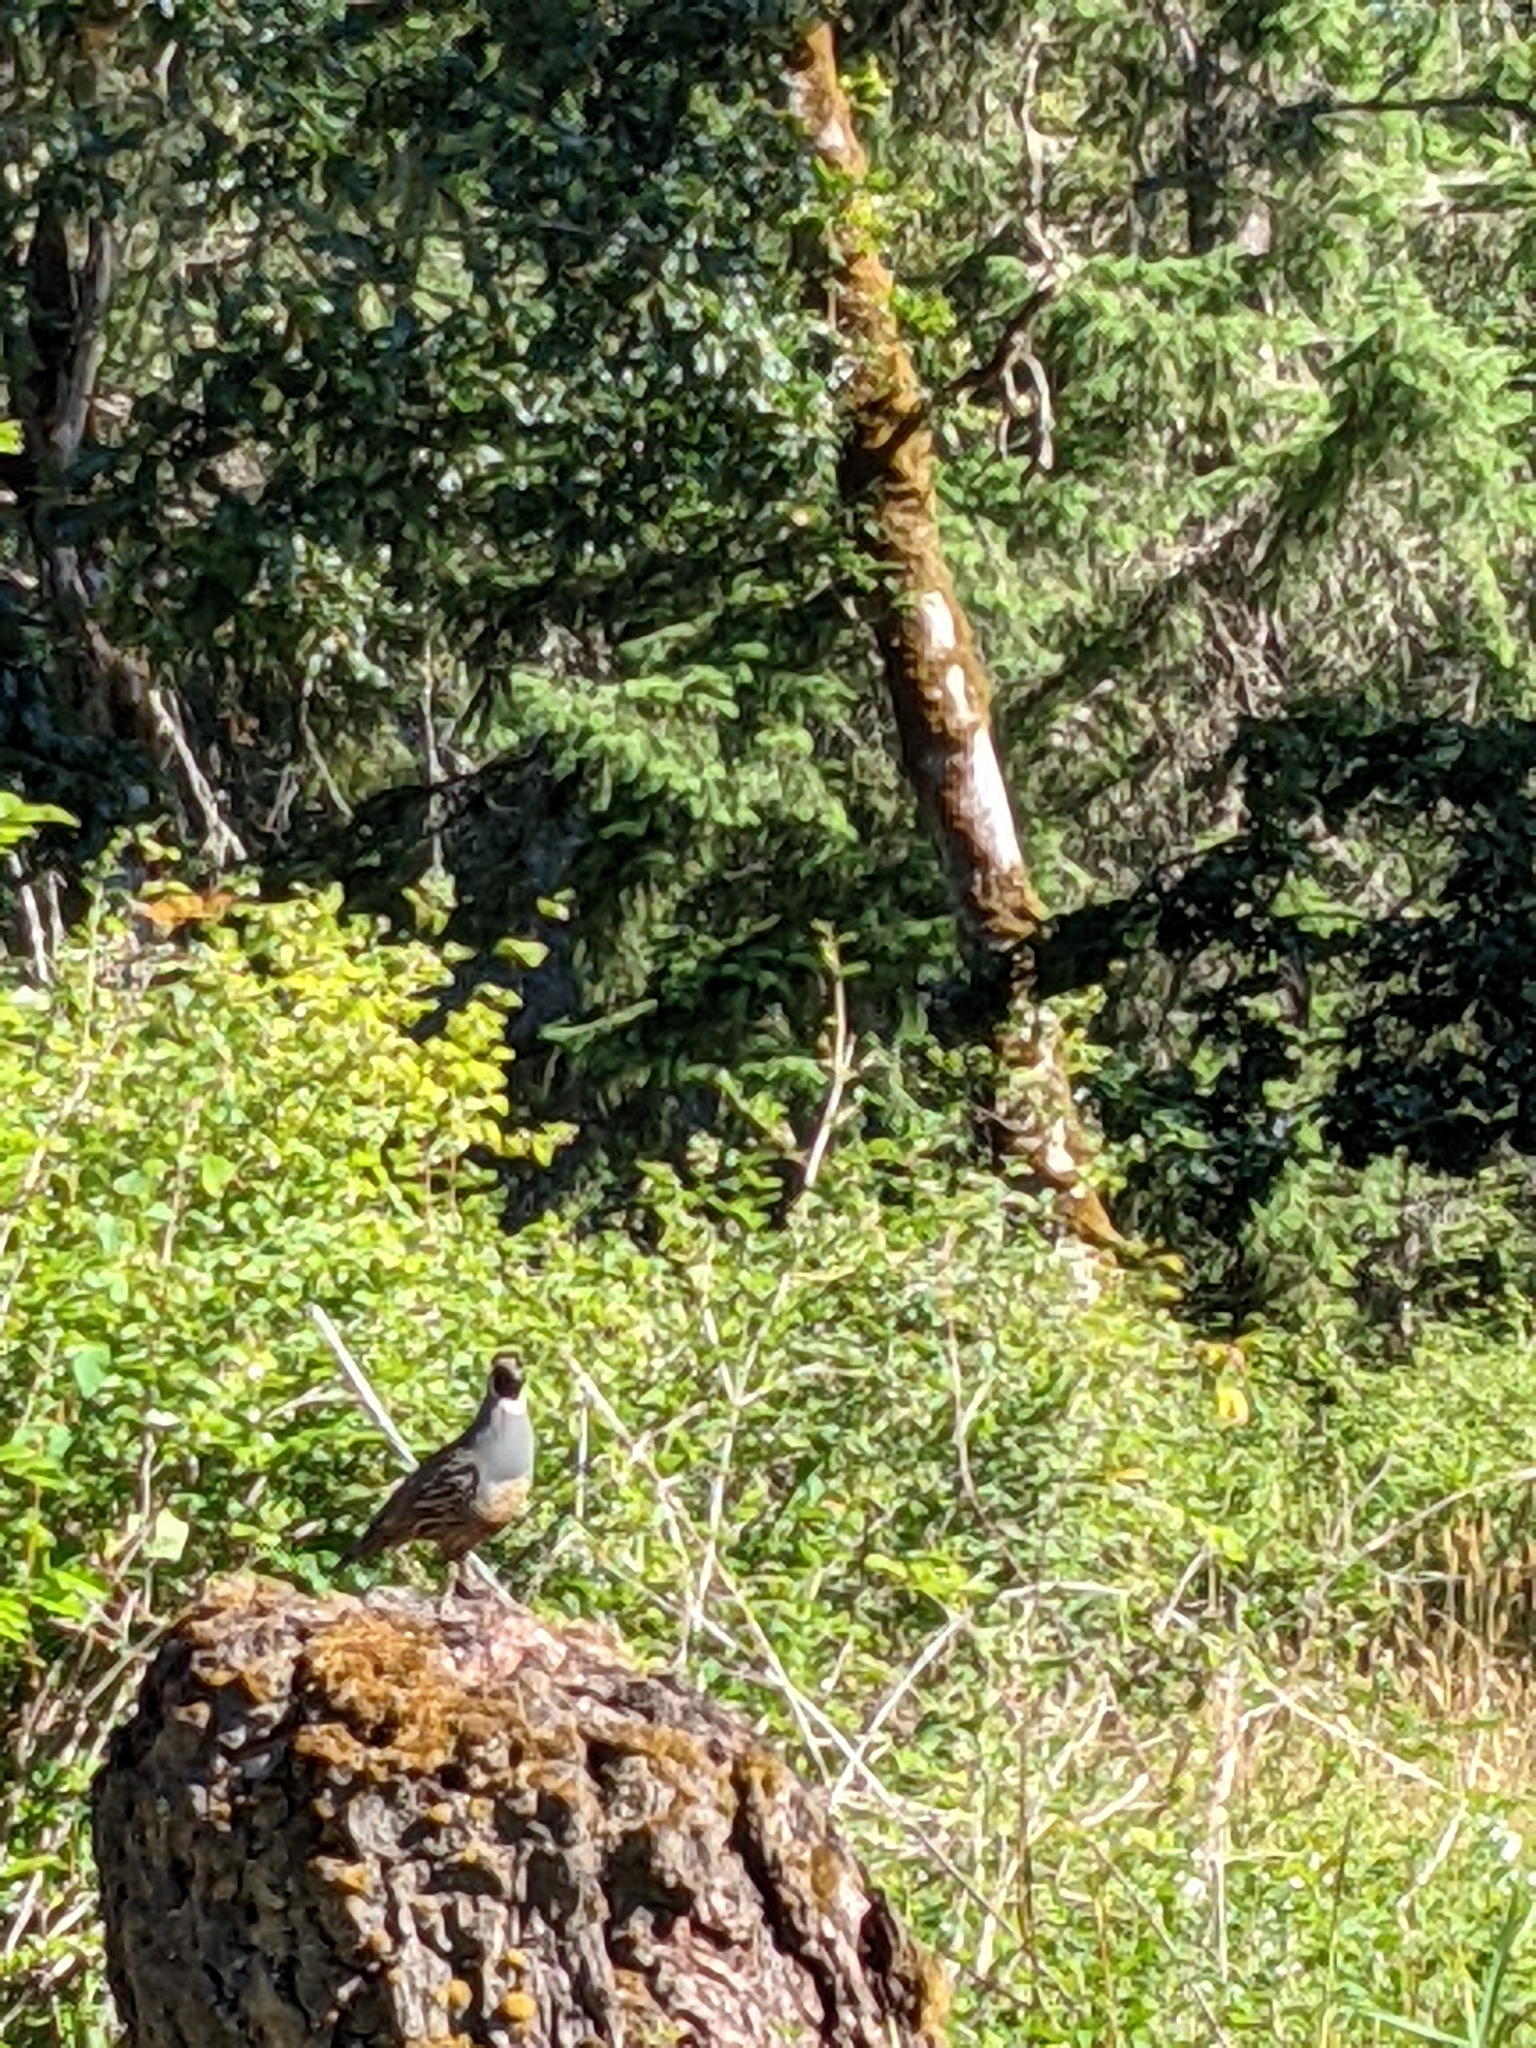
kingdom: Animalia
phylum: Chordata
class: Aves
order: Galliformes
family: Odontophoridae
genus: Callipepla
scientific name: Callipepla californica
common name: California quail
